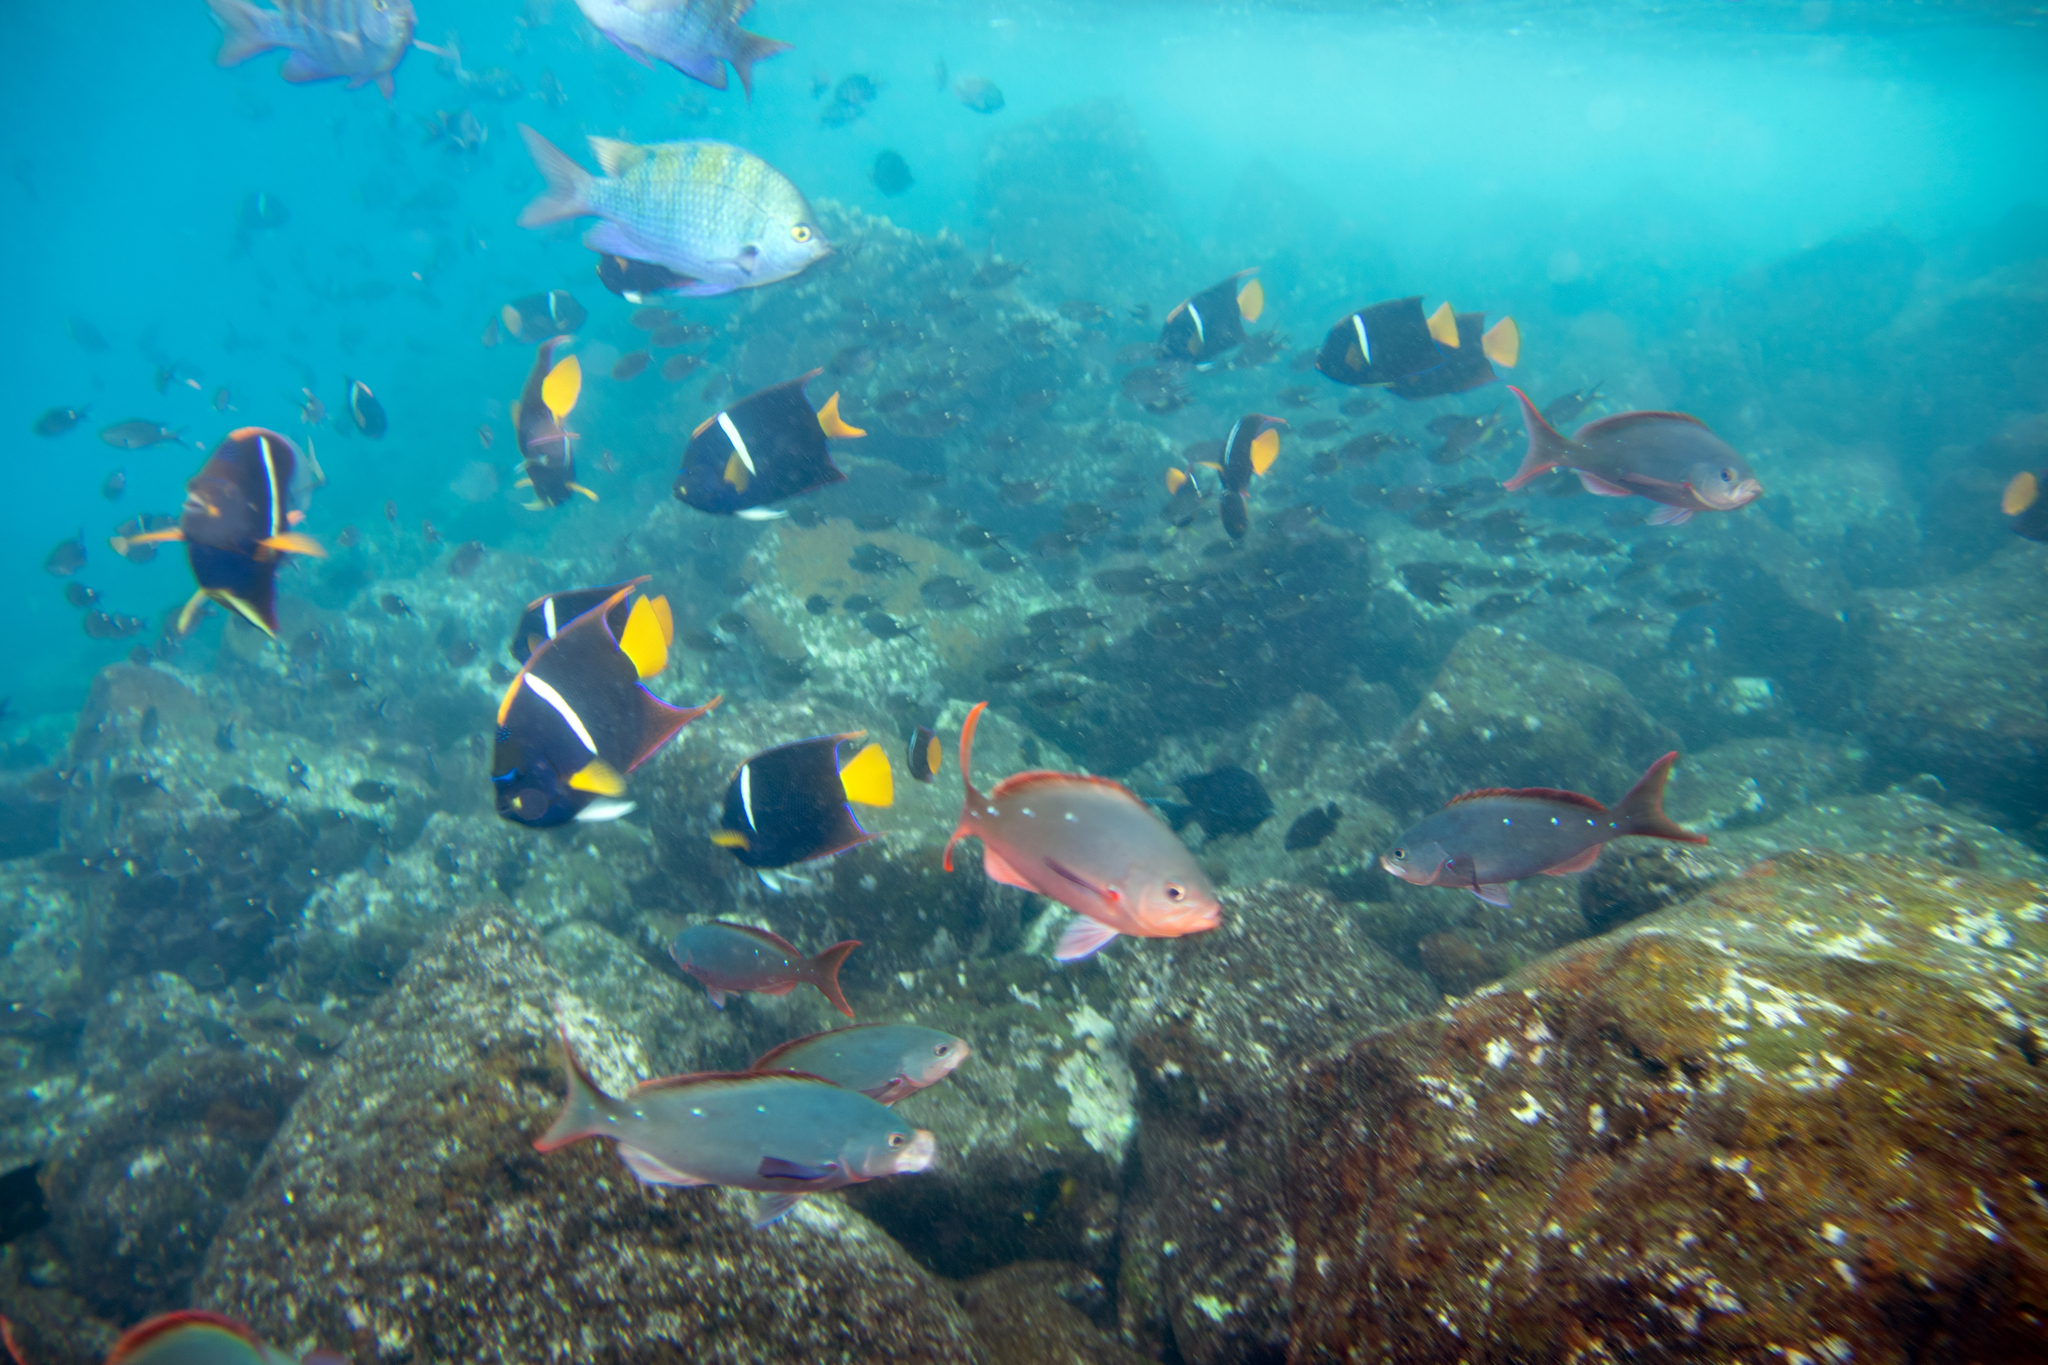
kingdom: Animalia
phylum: Chordata
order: Perciformes
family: Pomacanthidae
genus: Holacanthus
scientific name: Holacanthus passer
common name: King angelfish
